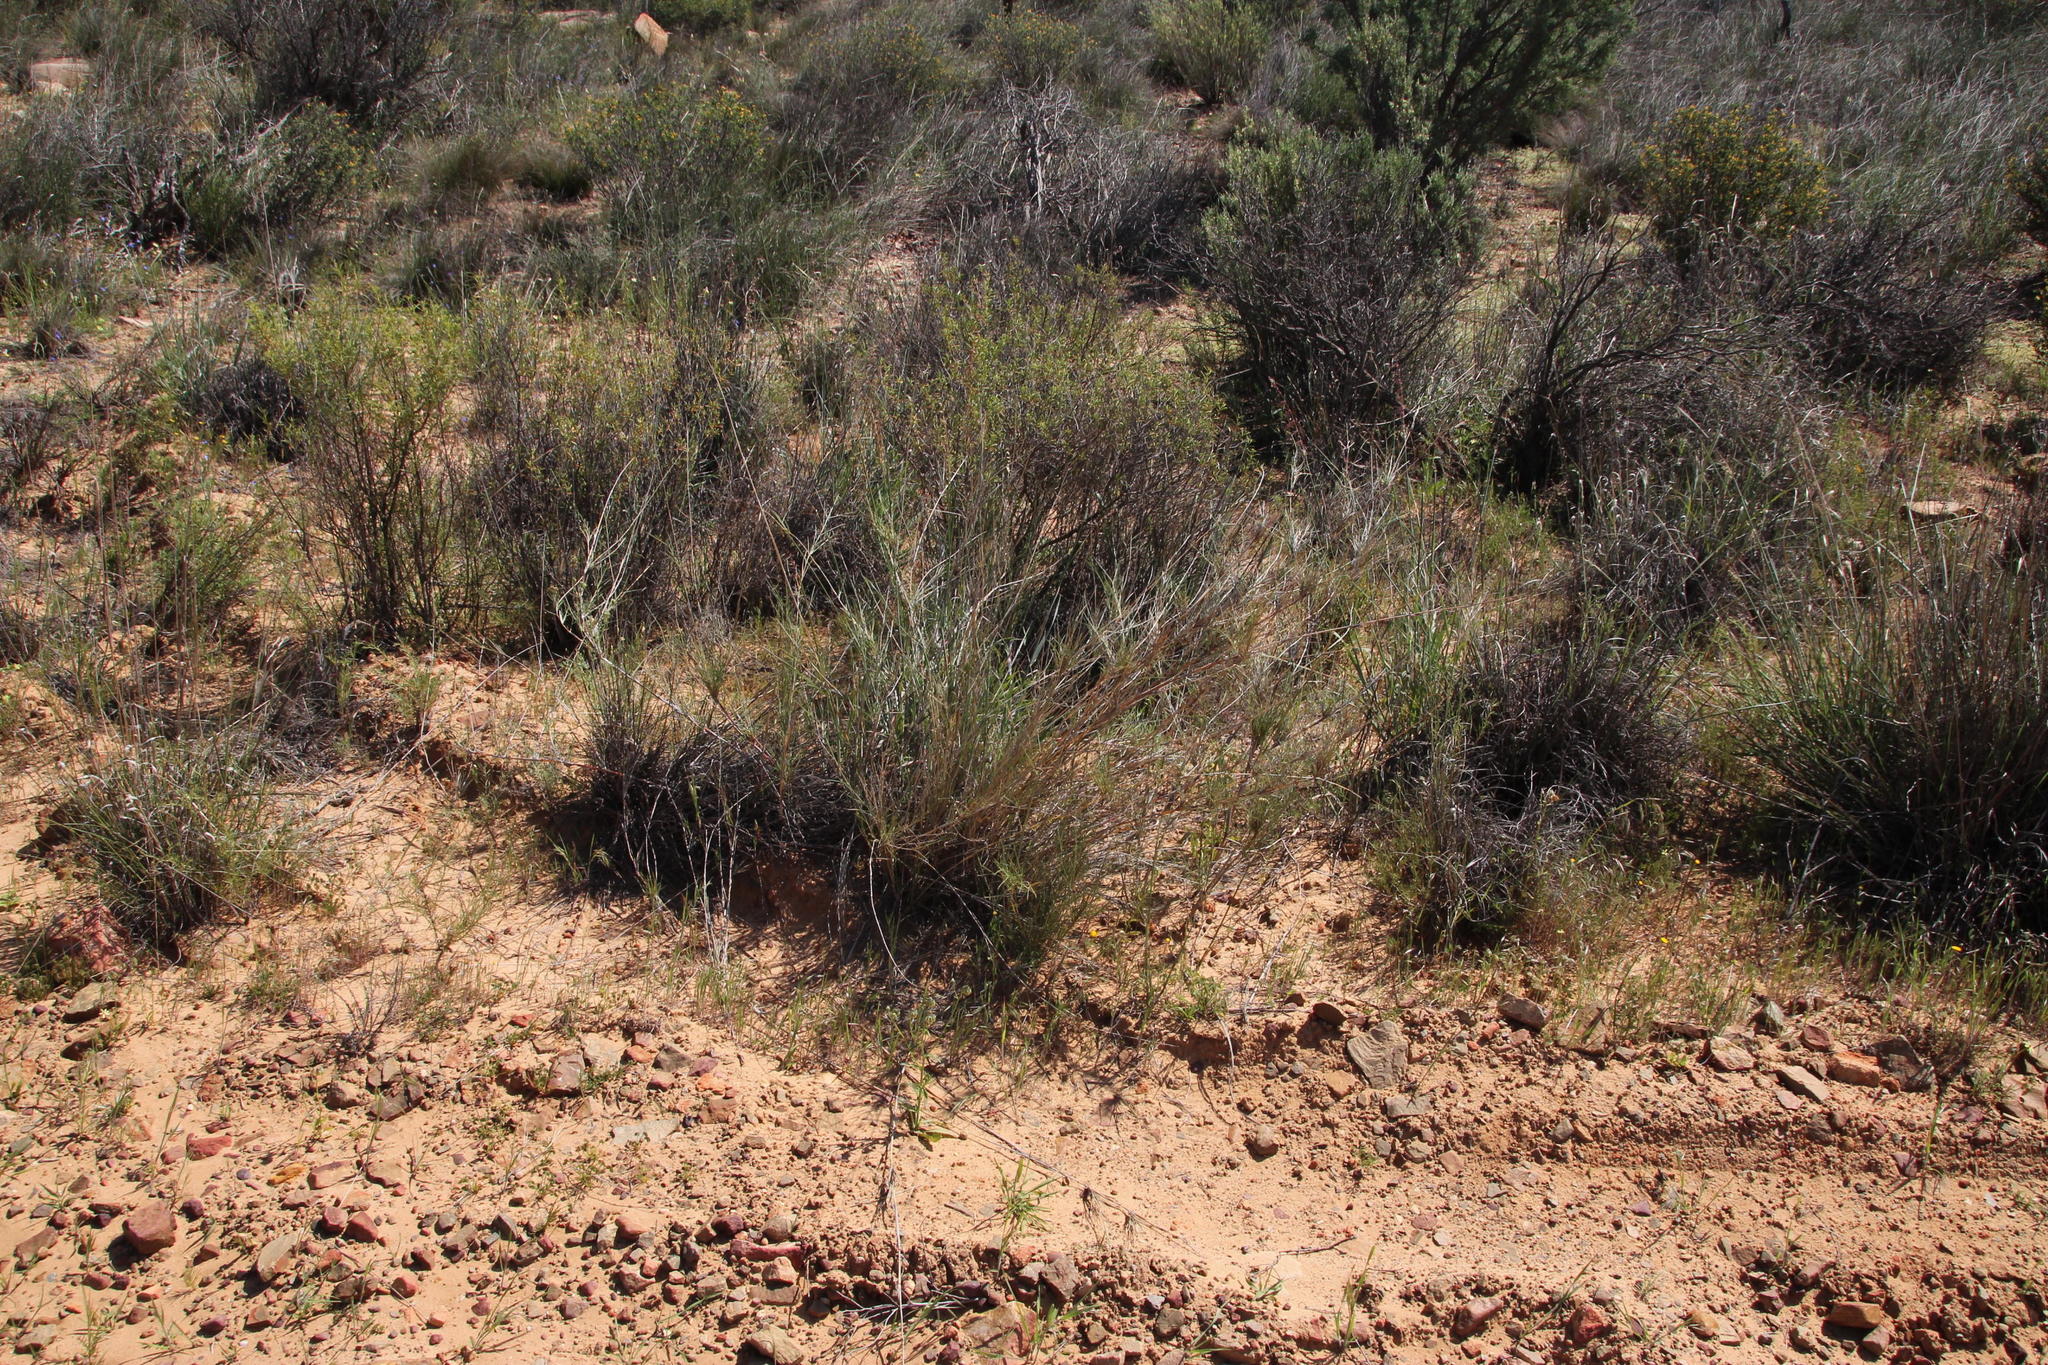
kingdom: Plantae
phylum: Tracheophyta
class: Liliopsida
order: Poales
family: Poaceae
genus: Stipagrostis
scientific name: Stipagrostis namaquensis
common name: River bushman grass
